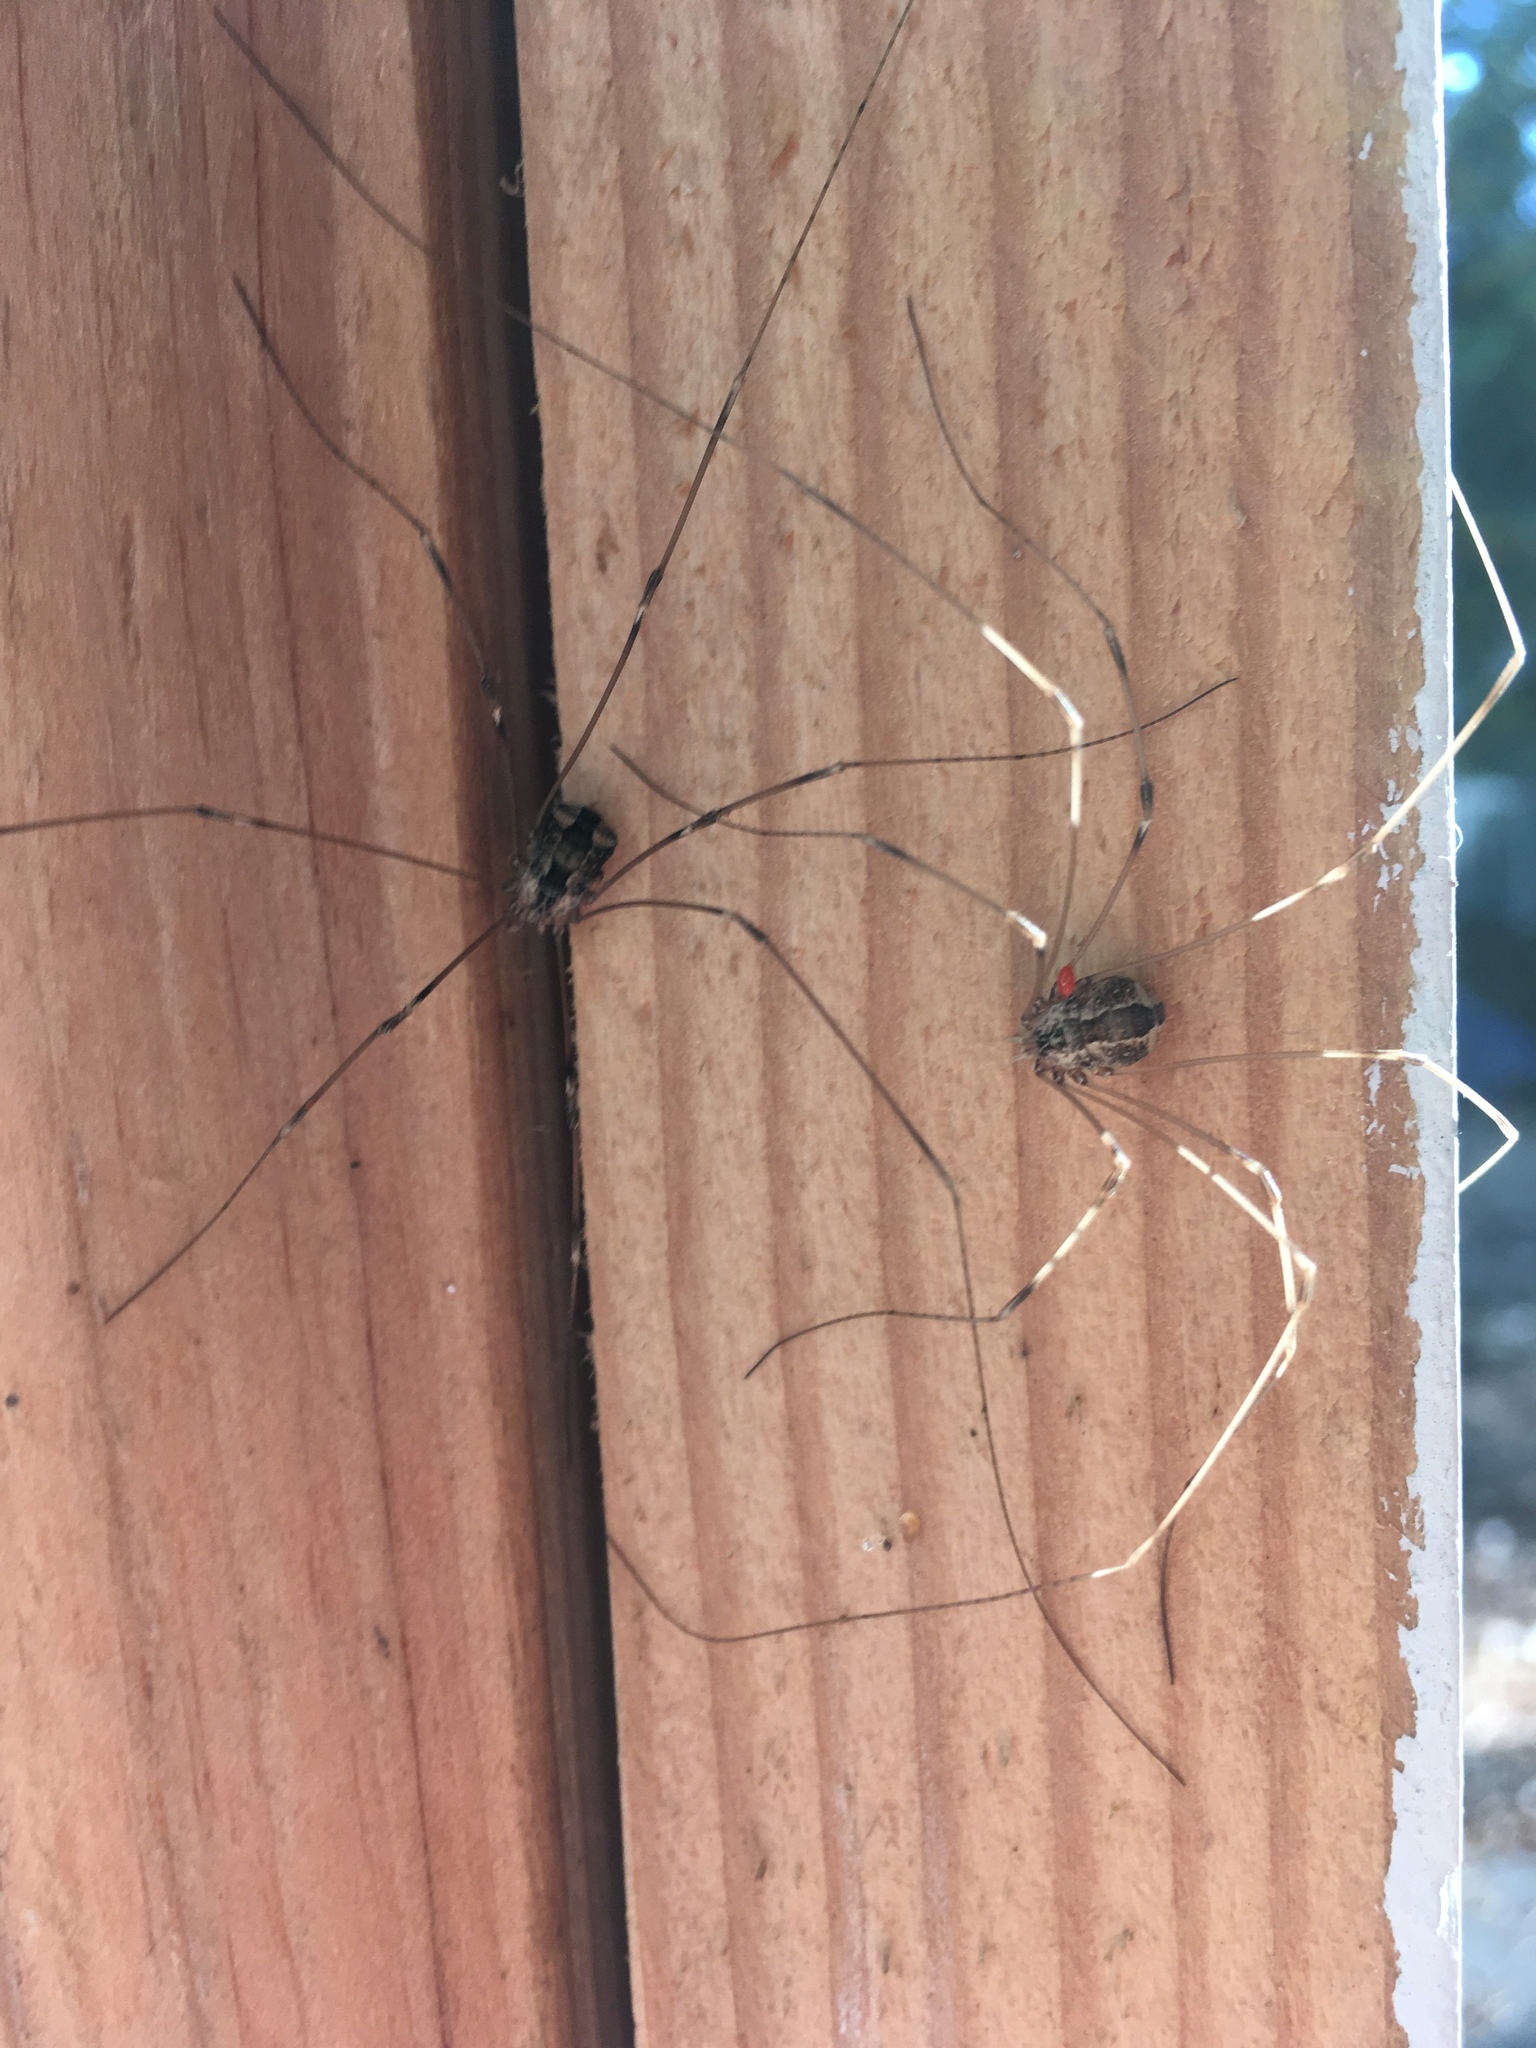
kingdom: Animalia
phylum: Arthropoda
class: Arachnida
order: Opiliones
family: Sclerosomatidae
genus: Leuronychus
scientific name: Leuronychus pacificus
